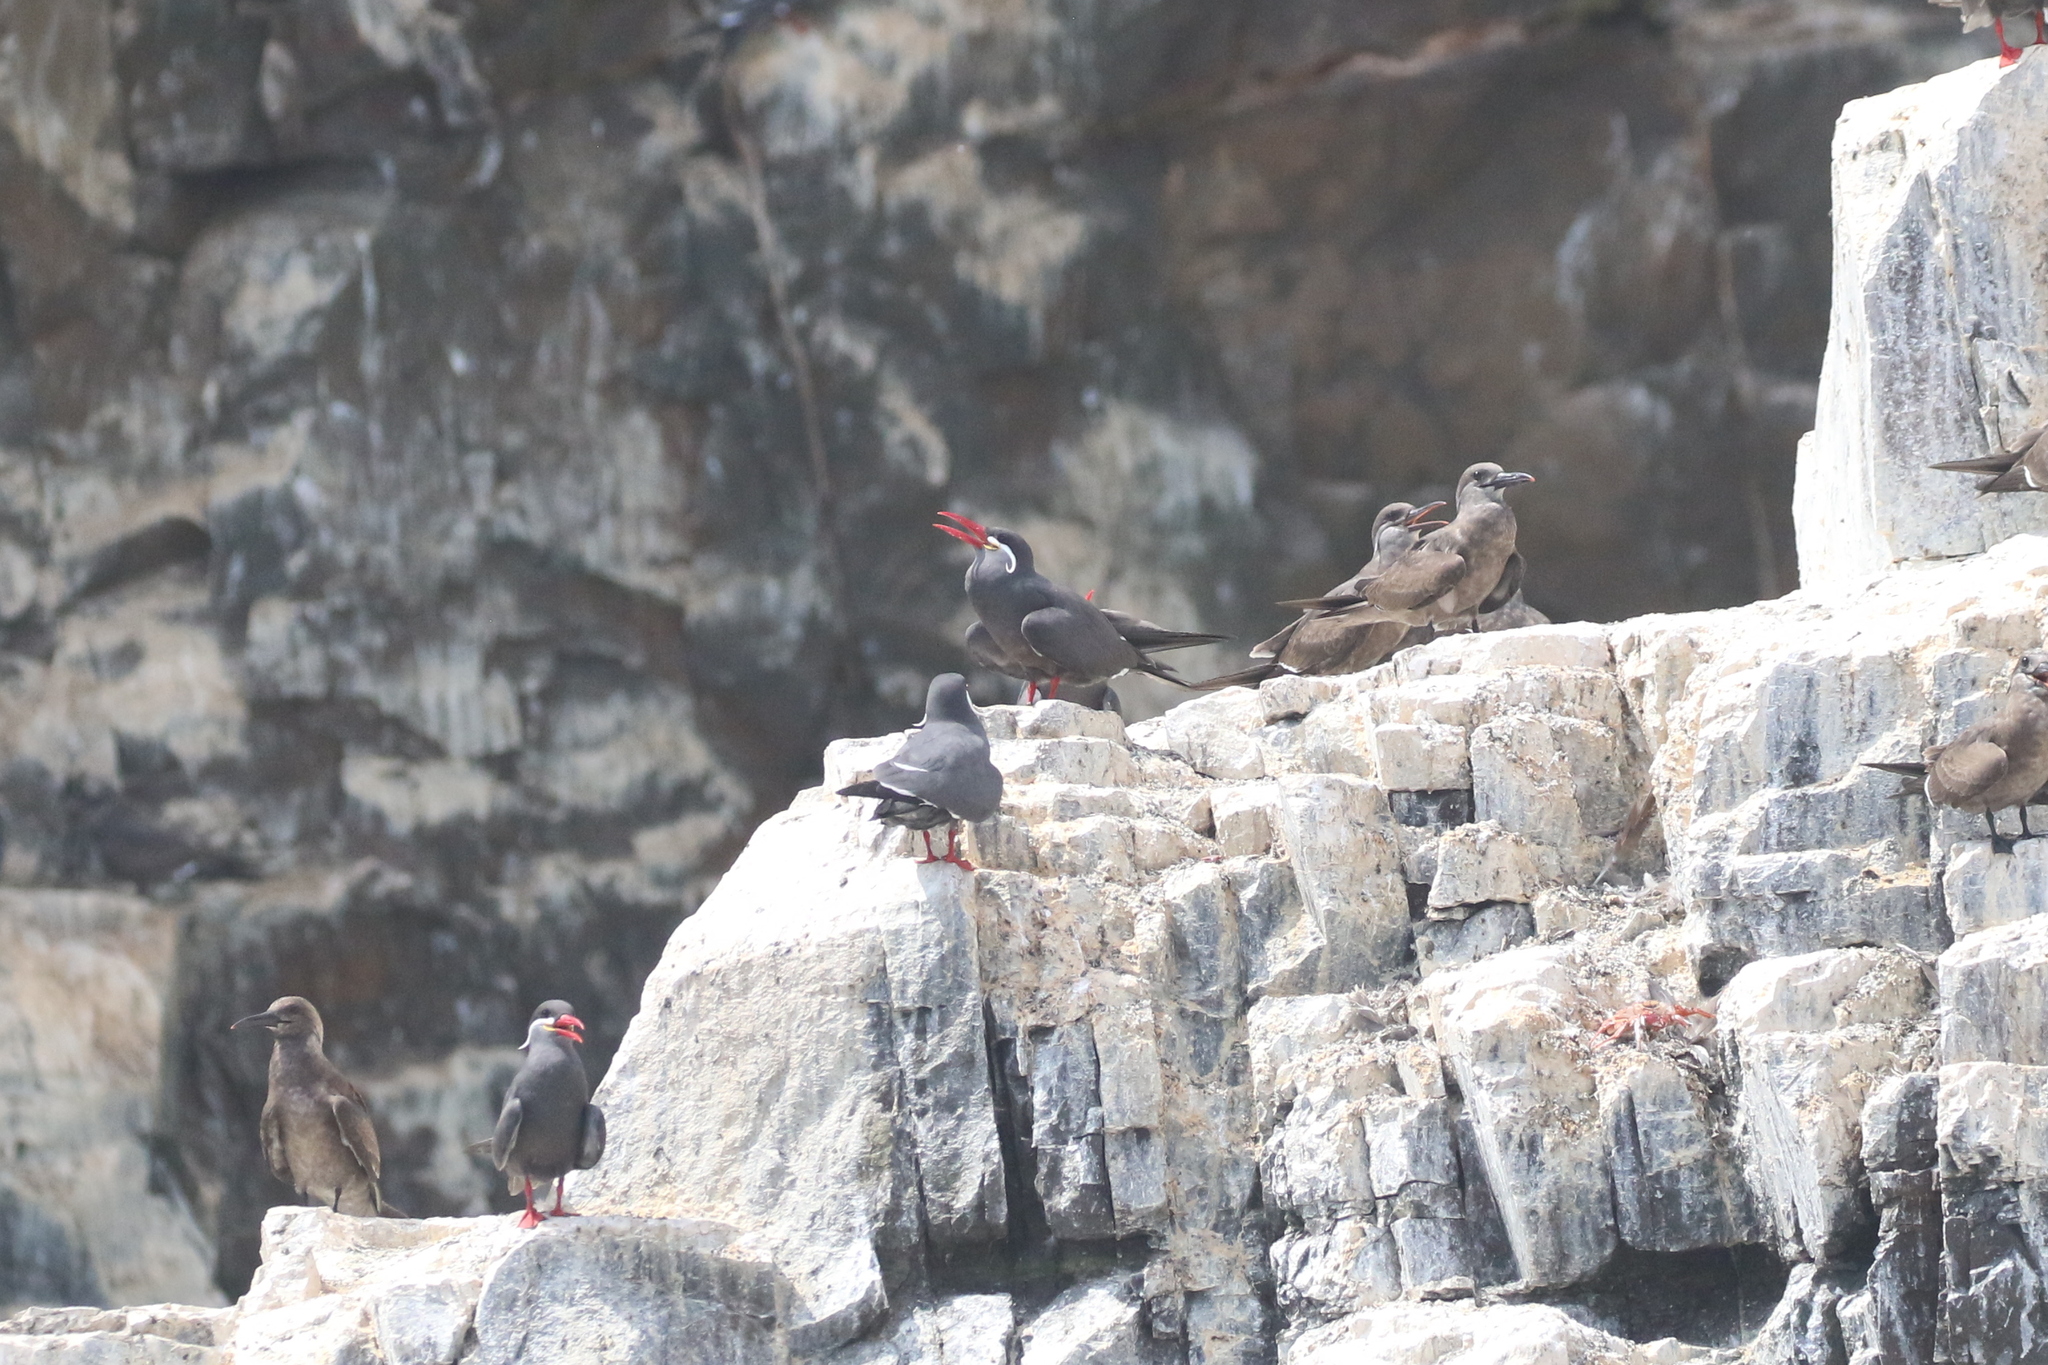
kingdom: Animalia
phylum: Chordata
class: Aves
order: Charadriiformes
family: Laridae
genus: Larosterna
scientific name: Larosterna inca
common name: Inca tern
